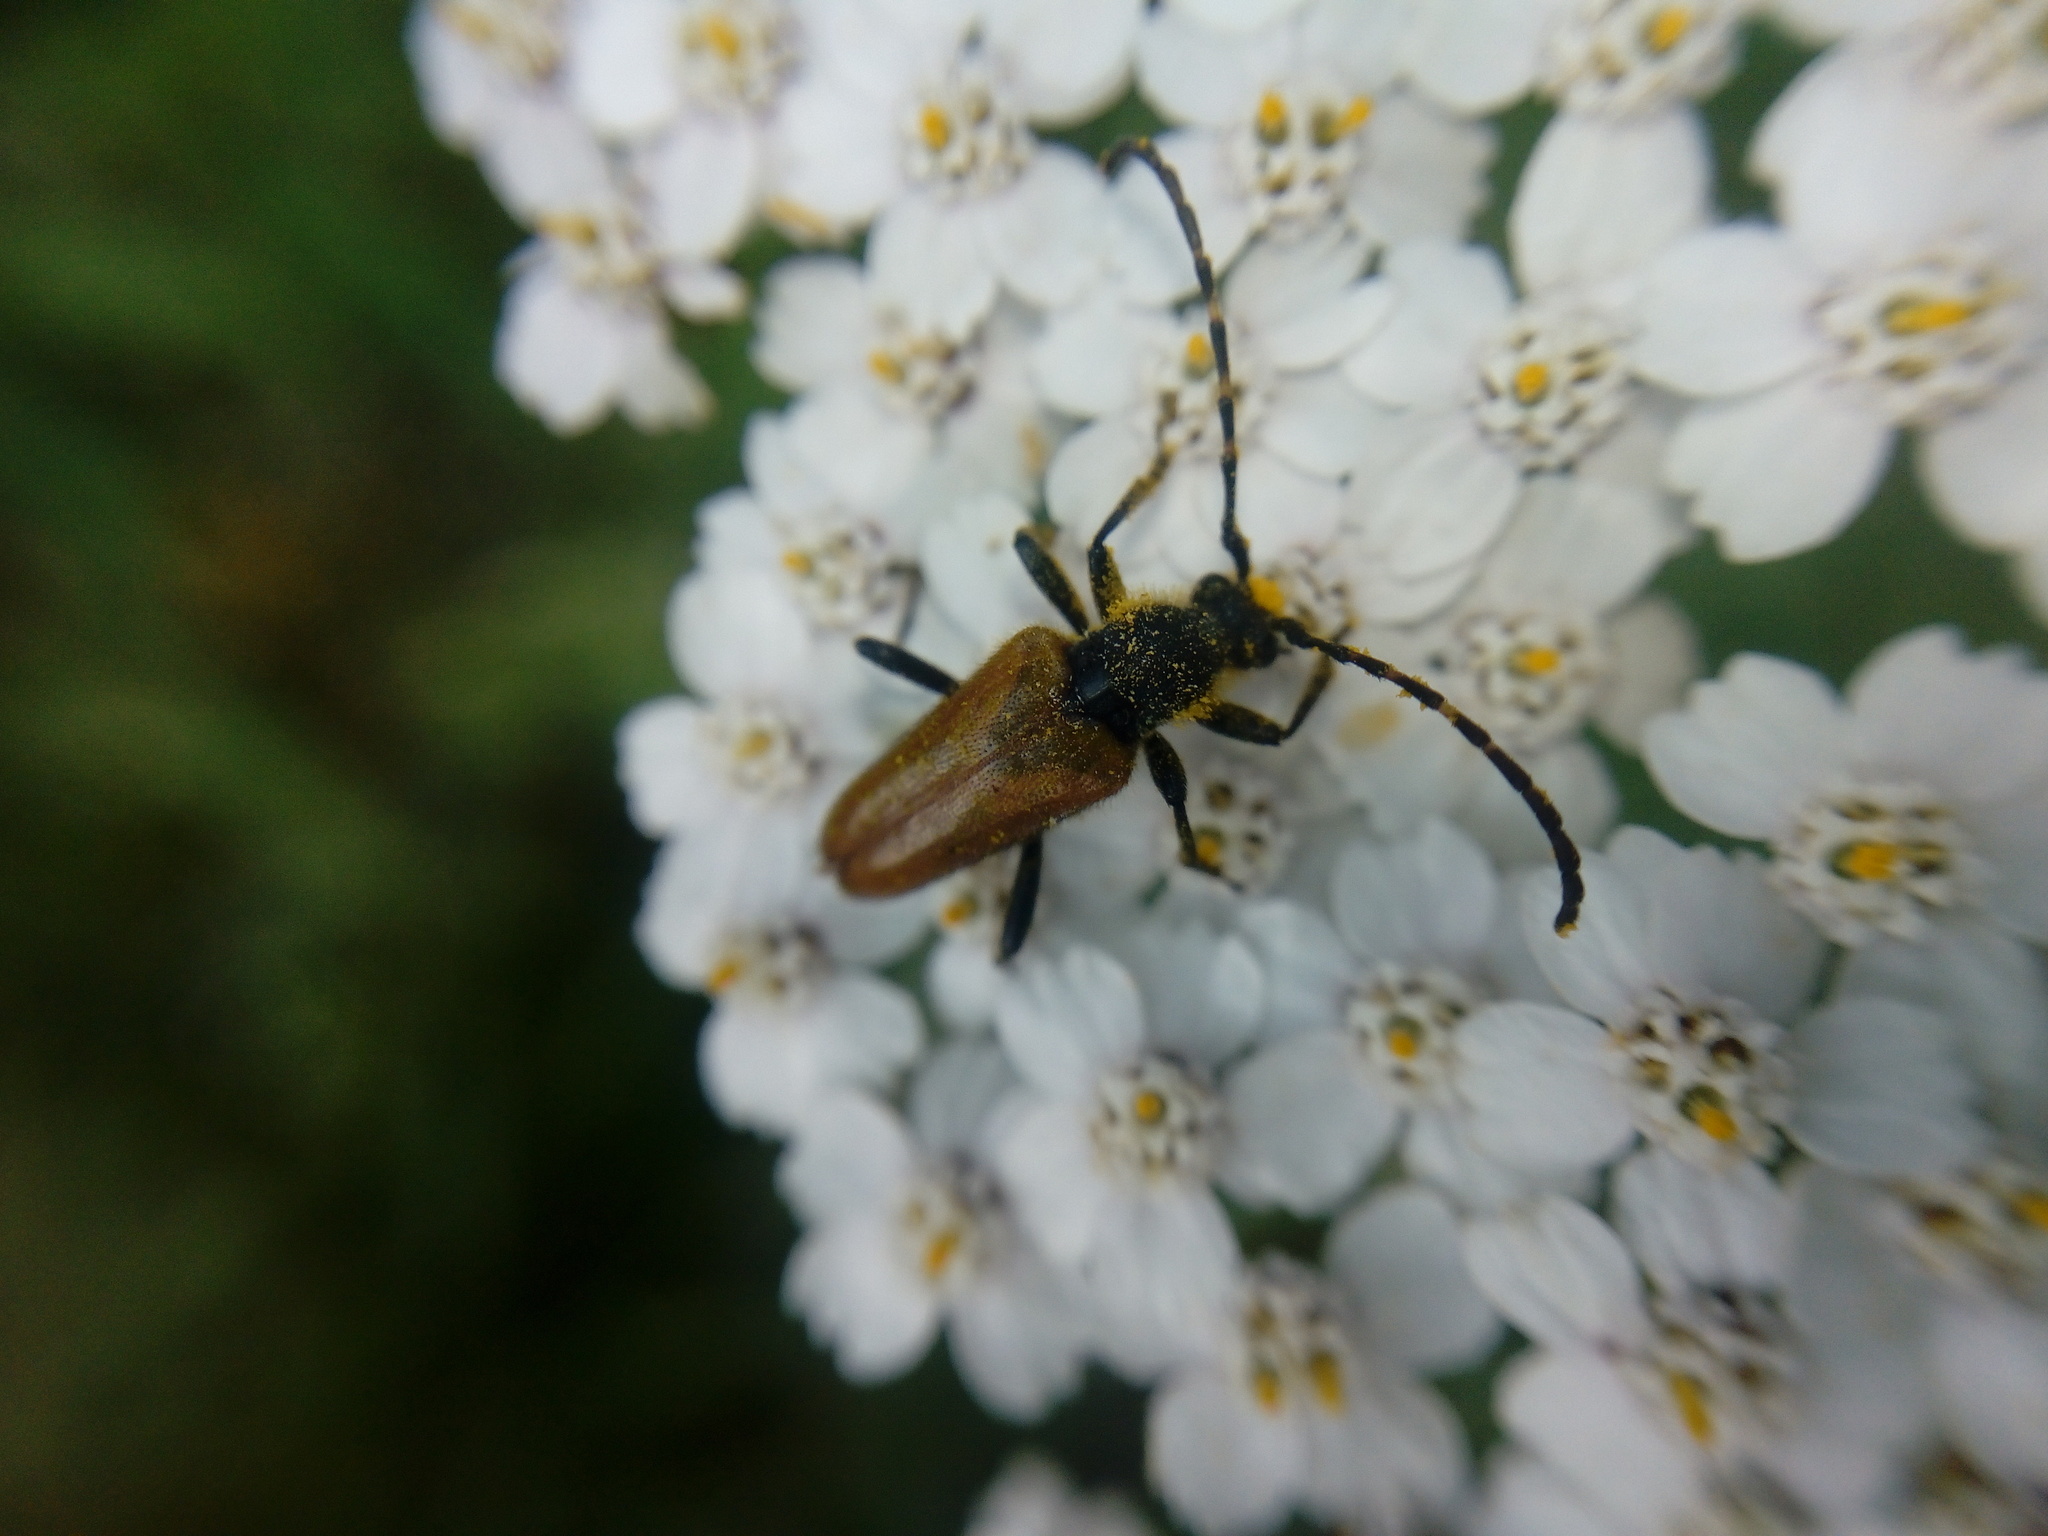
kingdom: Animalia
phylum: Arthropoda
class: Insecta
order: Coleoptera
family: Cerambycidae
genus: Paracorymbia
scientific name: Paracorymbia hybrida
